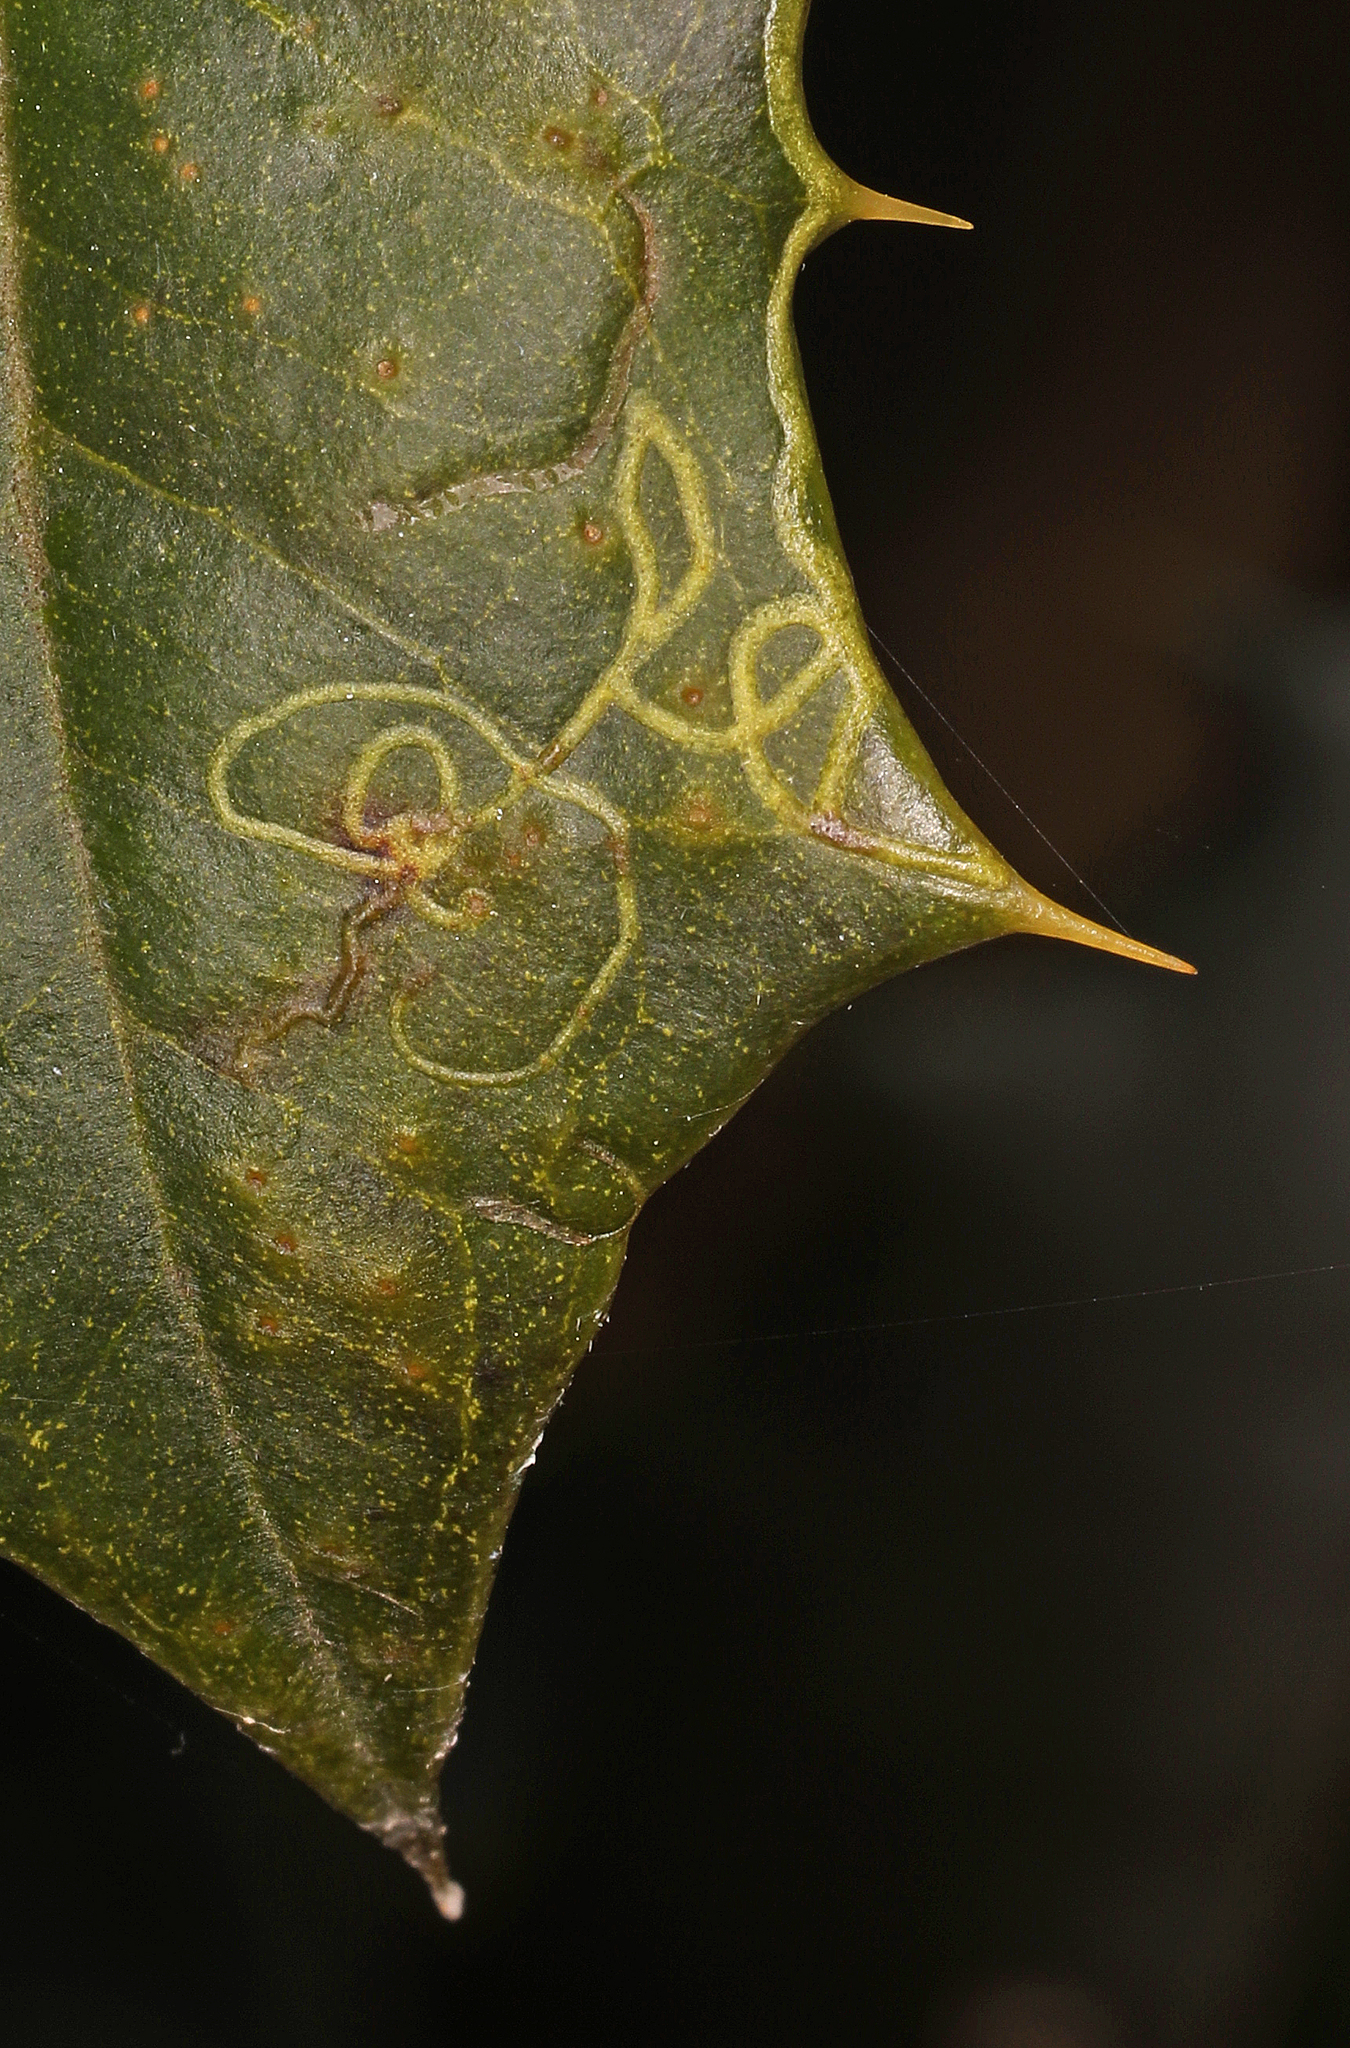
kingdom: Animalia
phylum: Arthropoda
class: Insecta
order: Diptera
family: Agromyzidae
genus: Phytomyza
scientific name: Phytomyza opacae
